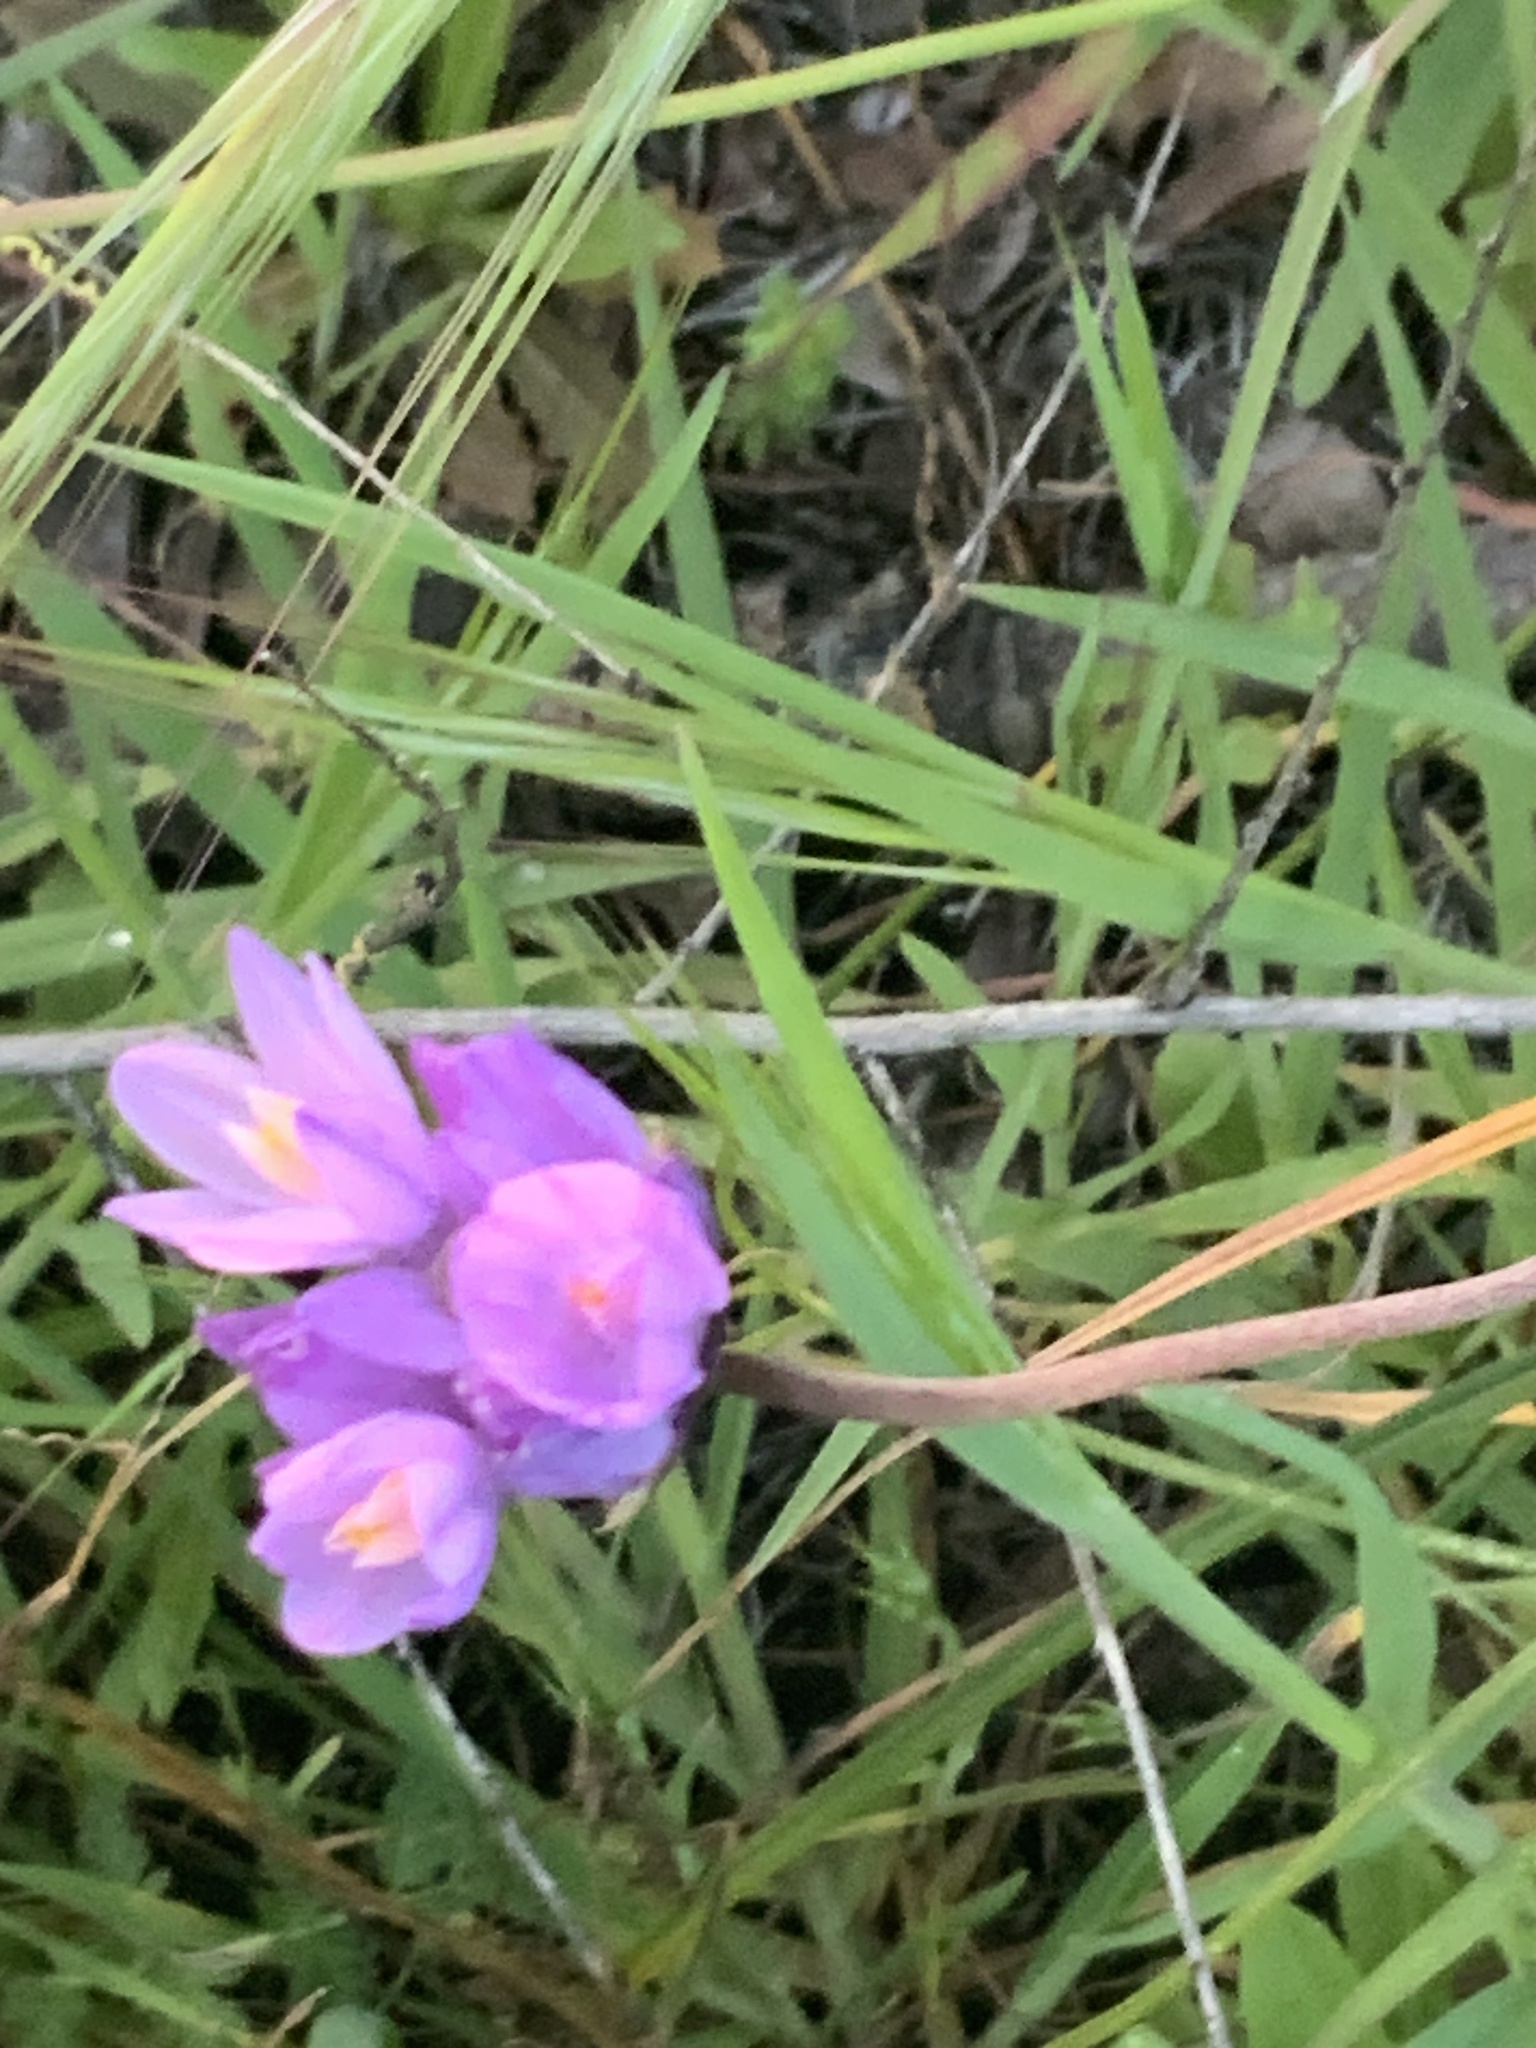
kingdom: Plantae
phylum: Tracheophyta
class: Liliopsida
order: Asparagales
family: Asparagaceae
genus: Dipterostemon
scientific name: Dipterostemon capitatus
